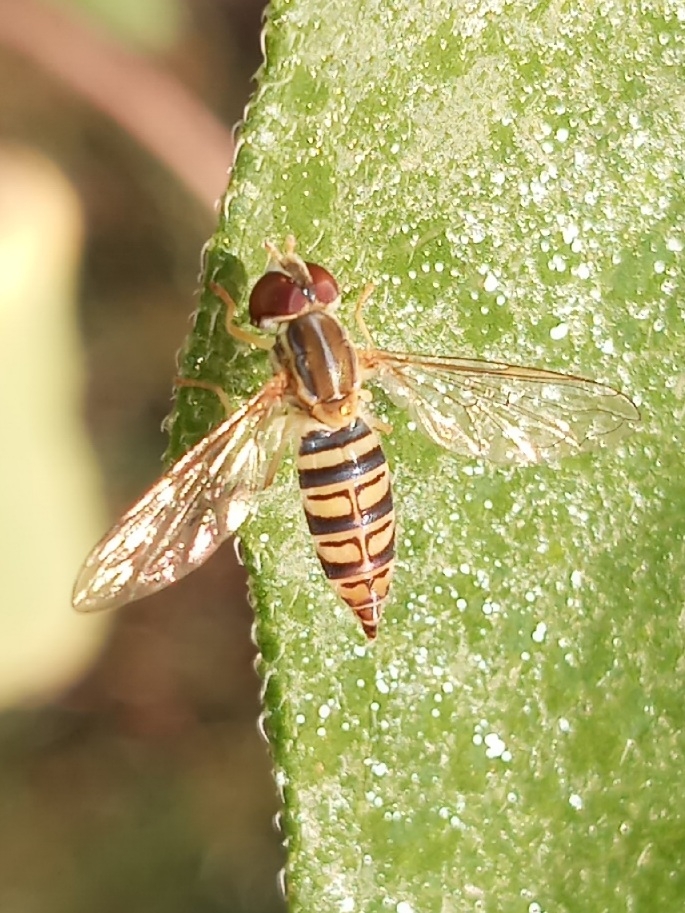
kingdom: Animalia
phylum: Arthropoda
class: Insecta
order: Diptera
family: Syrphidae
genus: Toxomerus
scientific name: Toxomerus politus
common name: Maize calligrapher
